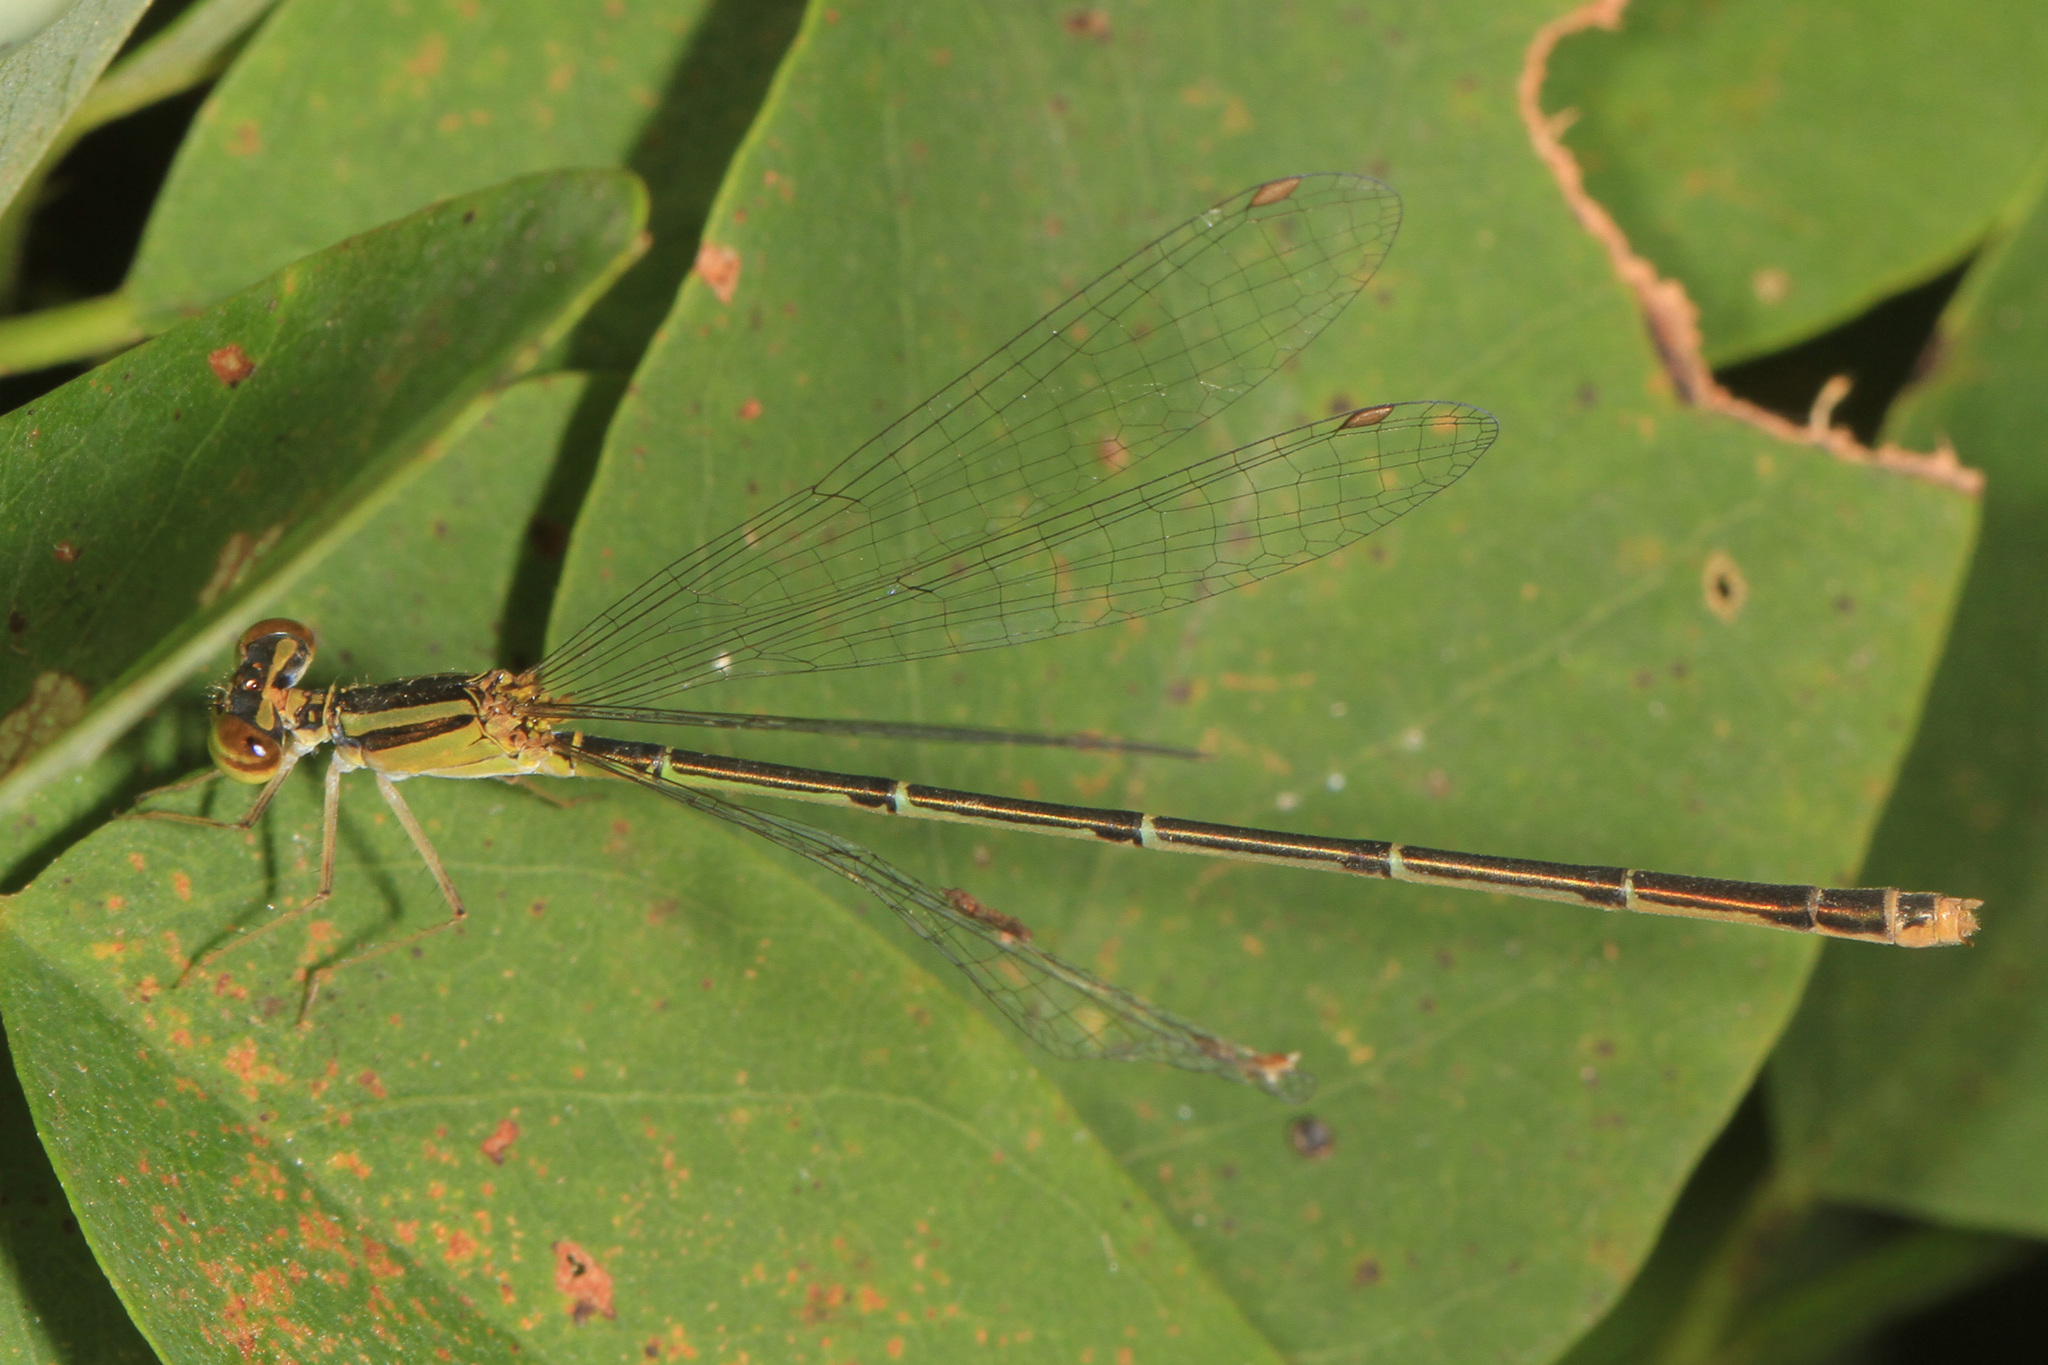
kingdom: Animalia
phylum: Arthropoda
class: Insecta
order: Odonata
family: Coenagrionidae
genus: Enallagma
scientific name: Enallagma signatum
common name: Orange bluet
